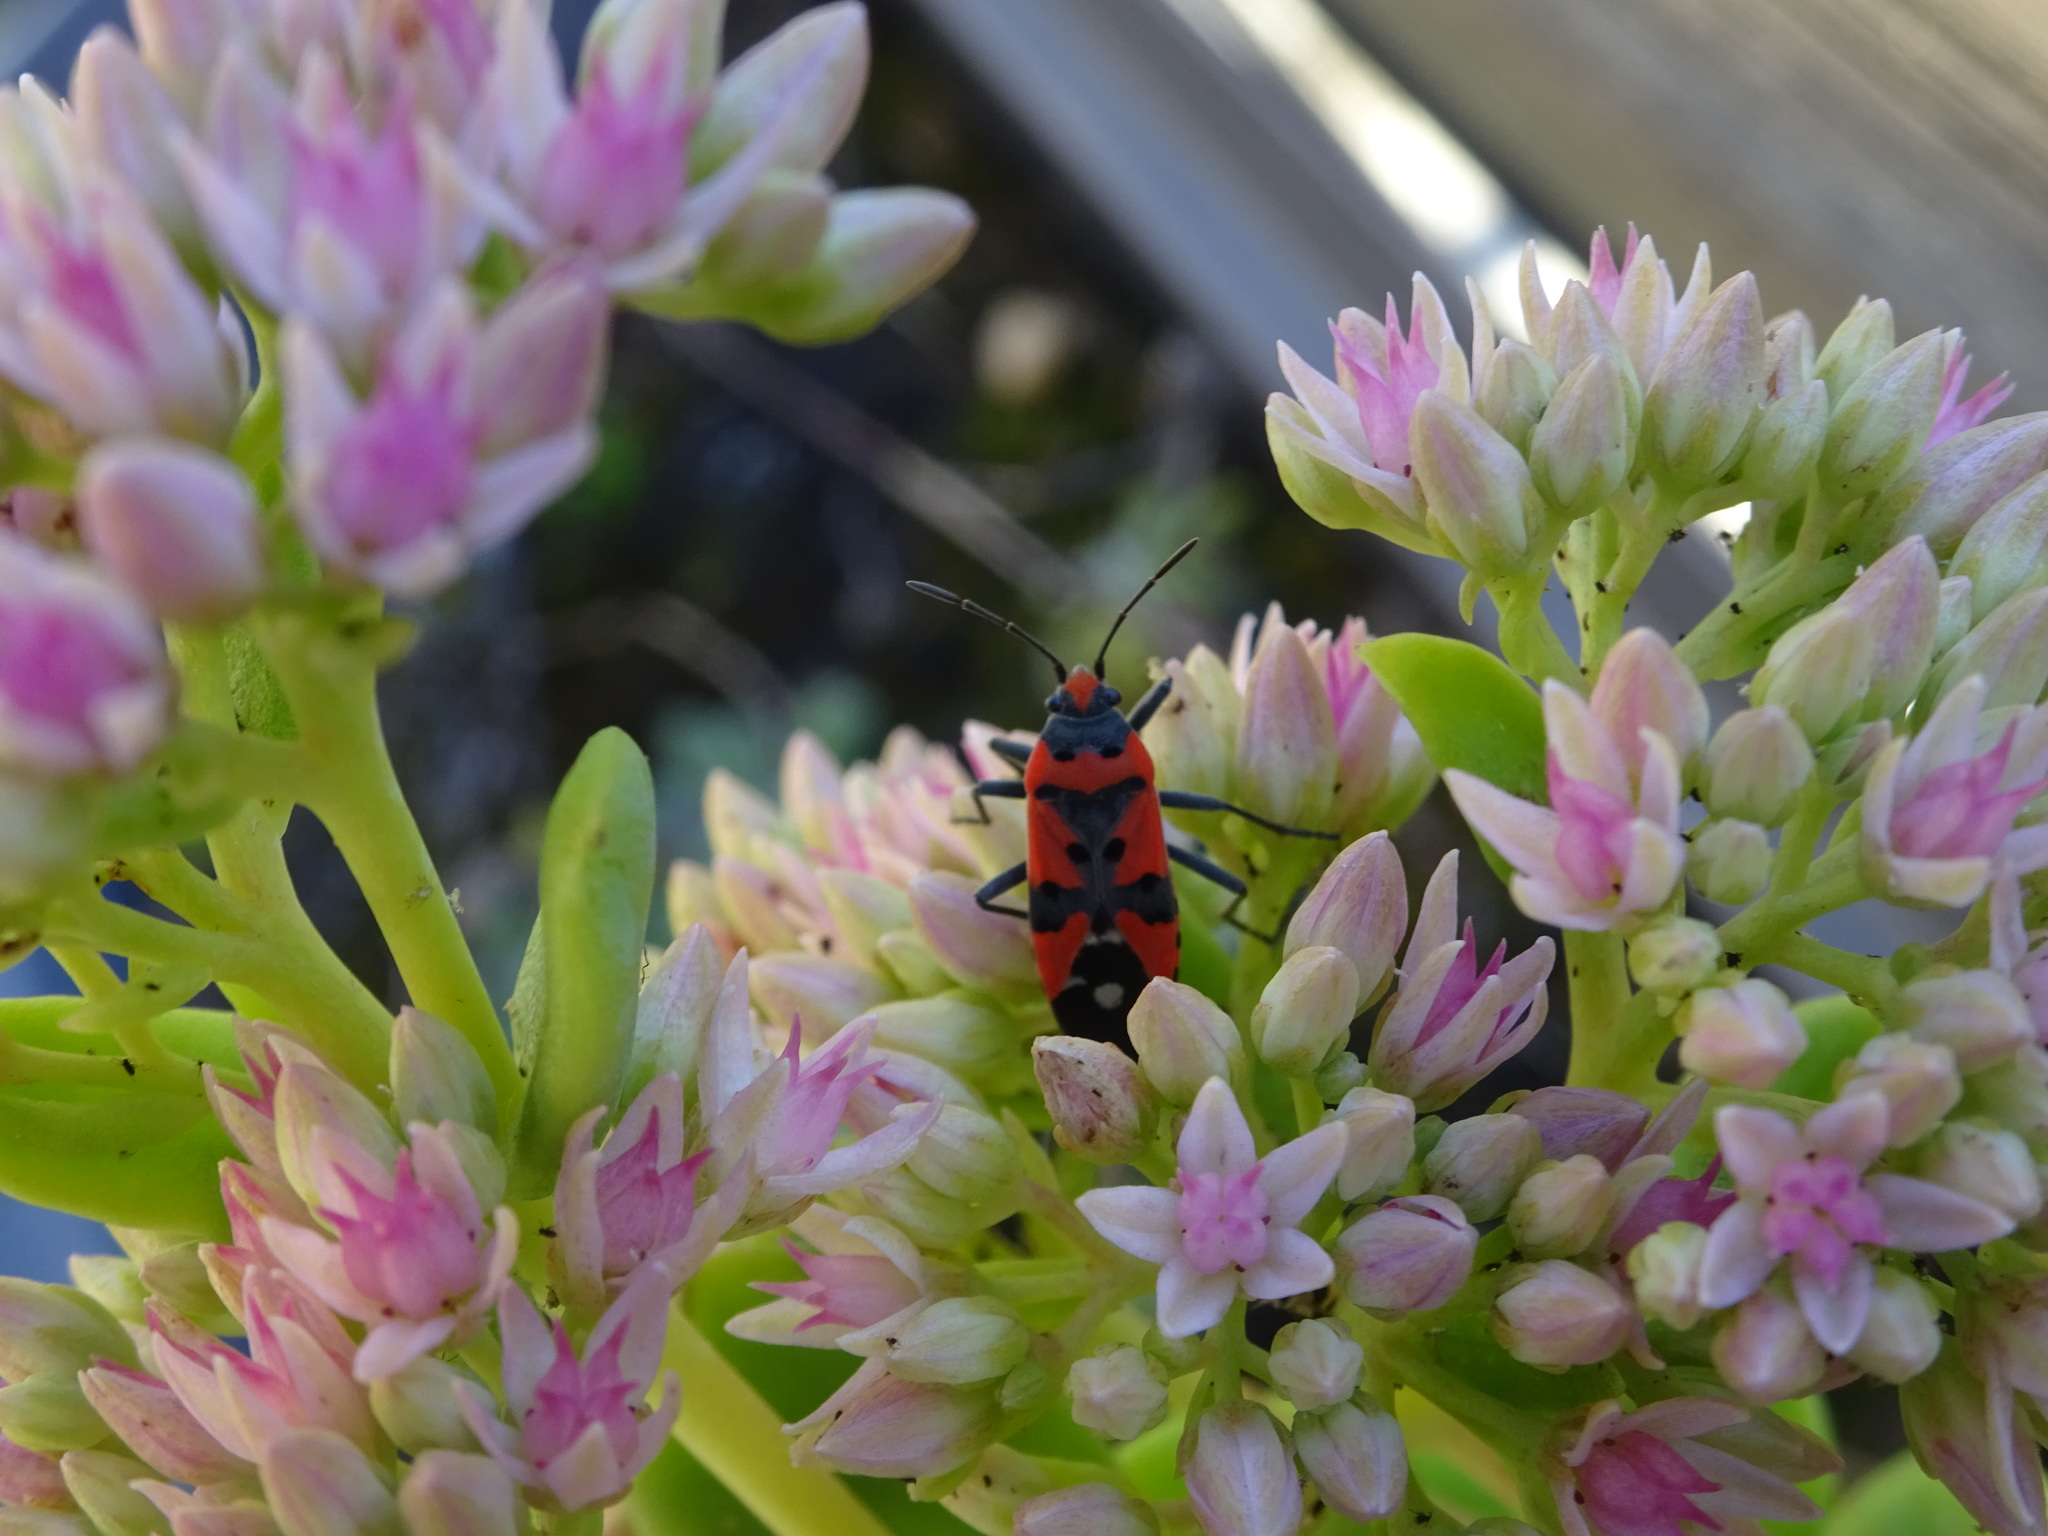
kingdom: Animalia
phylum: Arthropoda
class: Insecta
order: Hemiptera
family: Lygaeidae
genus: Lygaeus
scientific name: Lygaeus equestris
